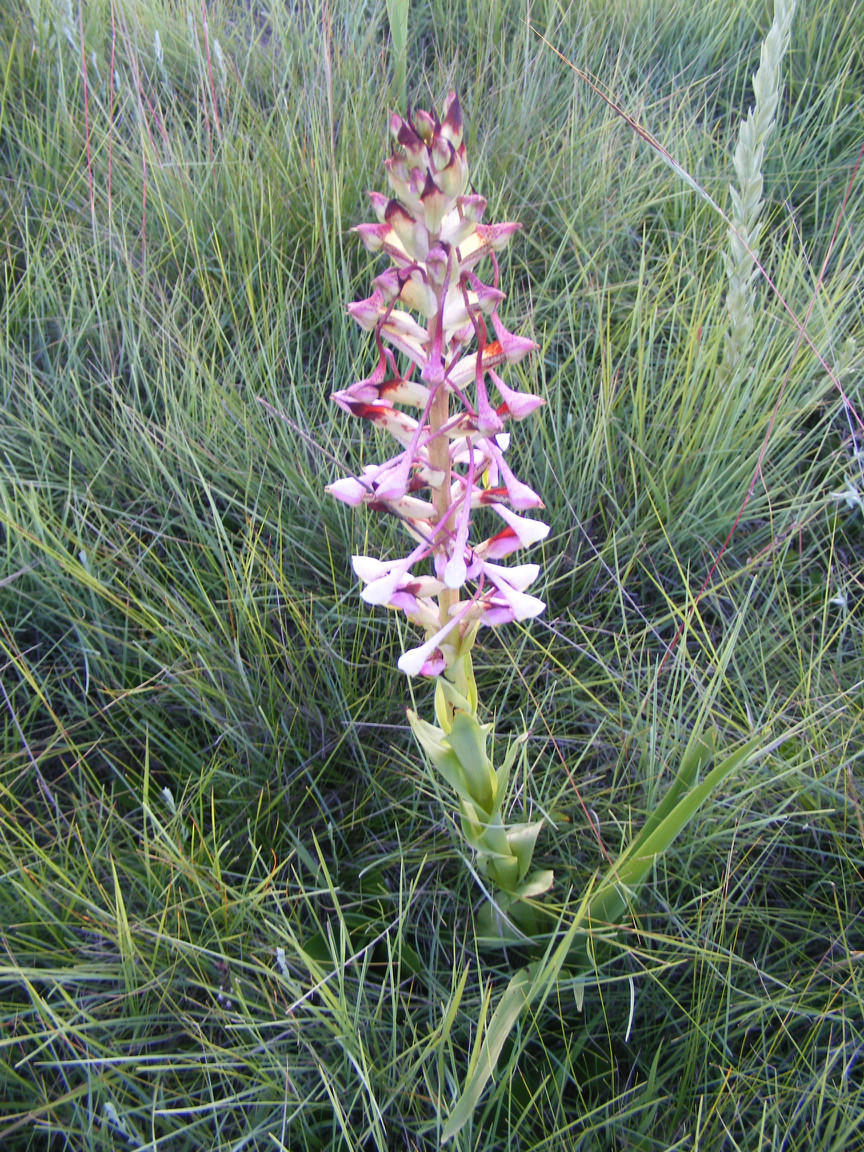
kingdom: Plantae
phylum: Tracheophyta
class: Liliopsida
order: Asparagales
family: Orchidaceae
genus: Disa
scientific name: Disa cooperi
